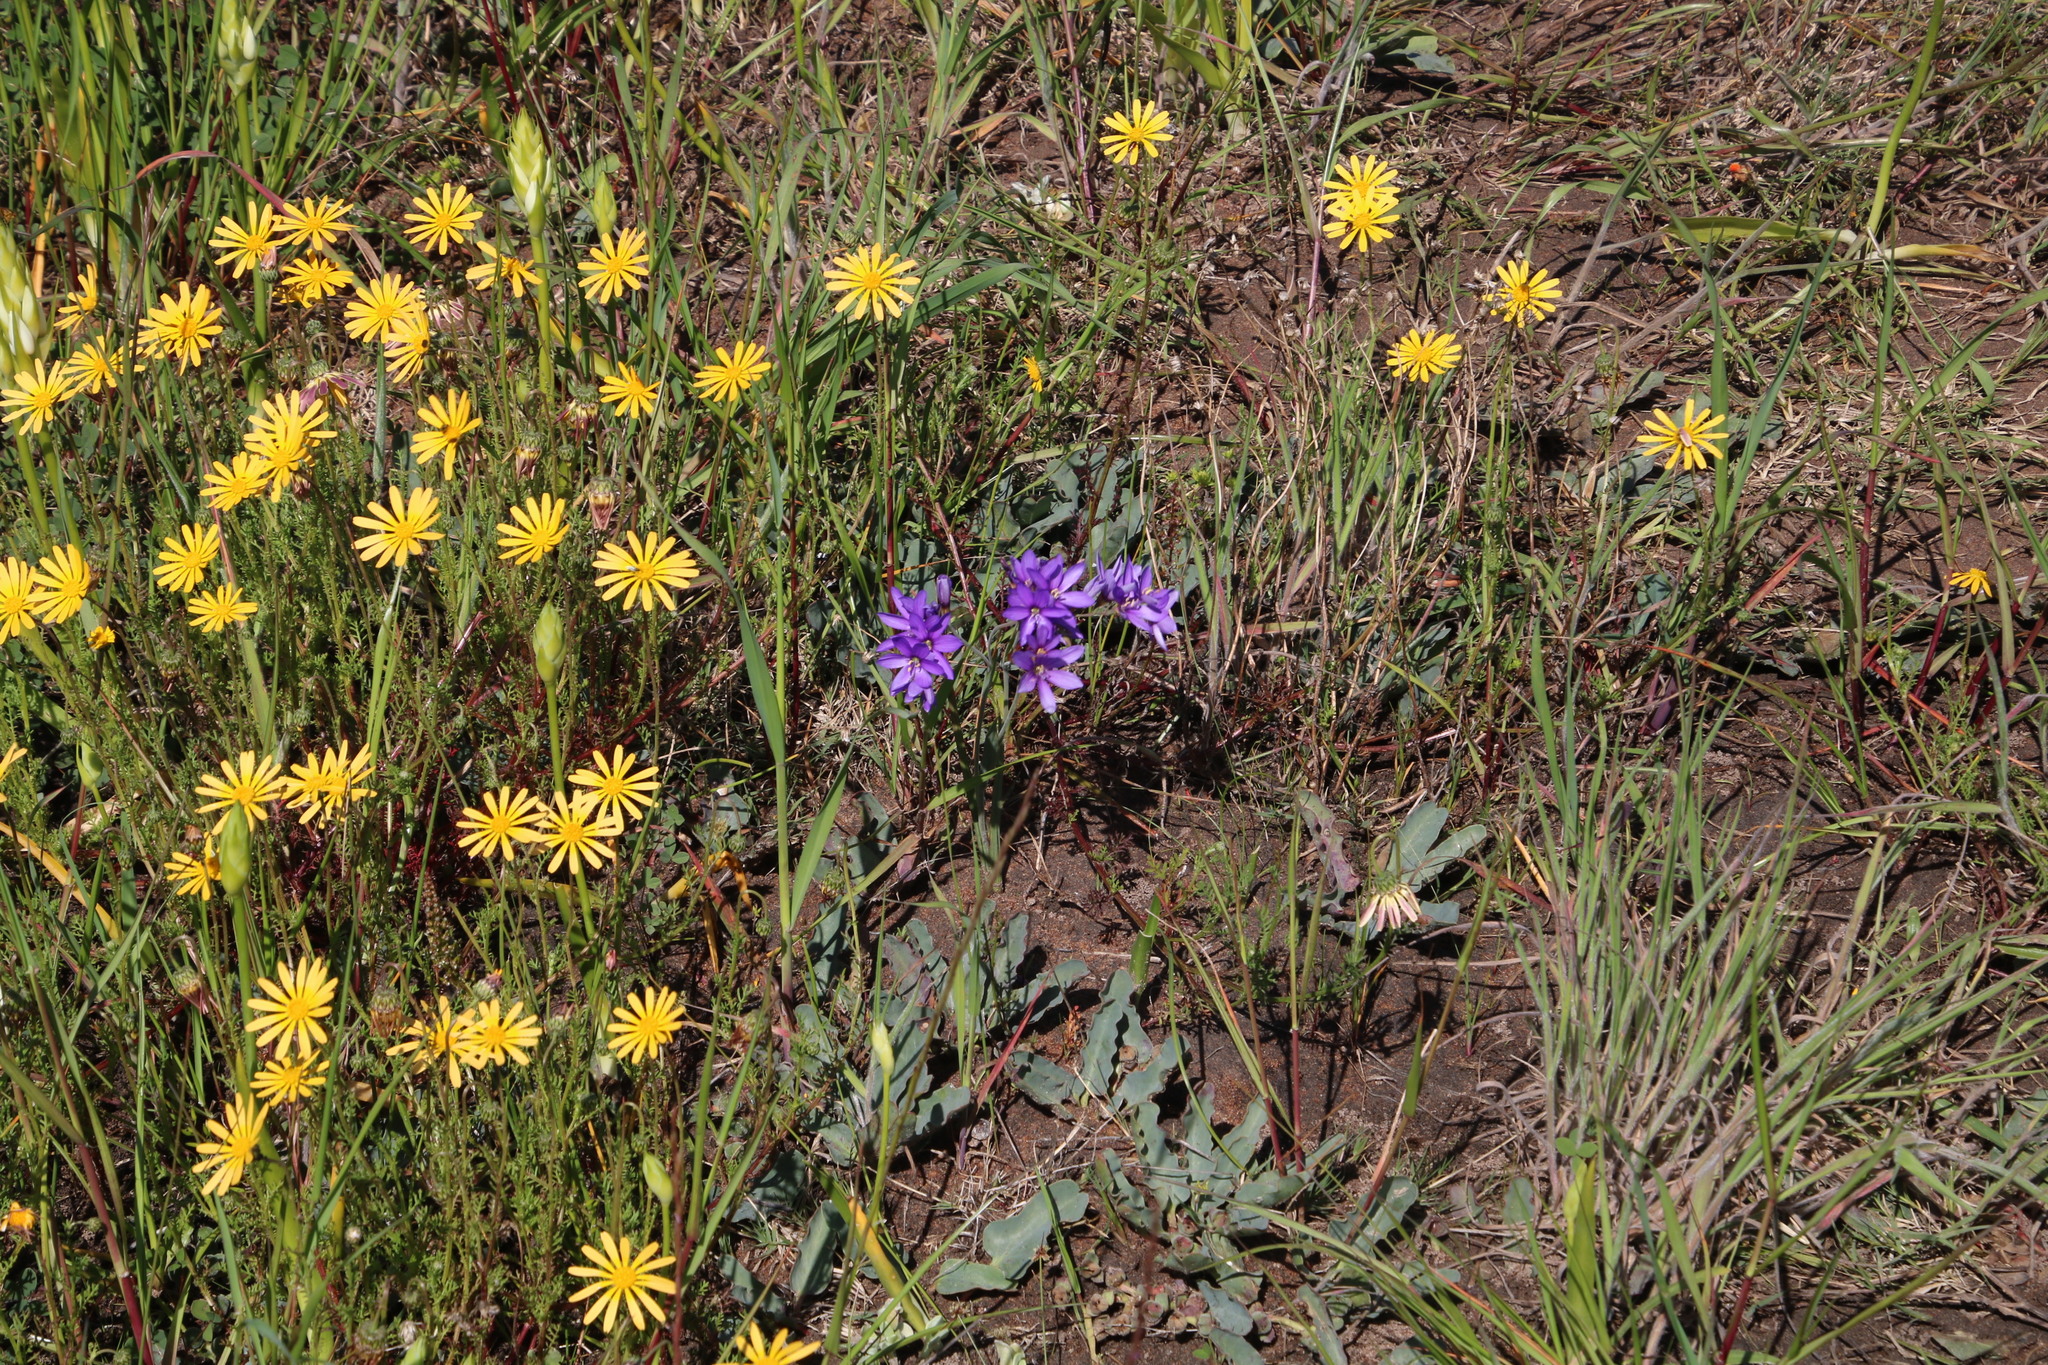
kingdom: Plantae
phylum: Tracheophyta
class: Liliopsida
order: Asparagales
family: Iridaceae
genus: Geissorhiza
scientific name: Geissorhiza aspera
